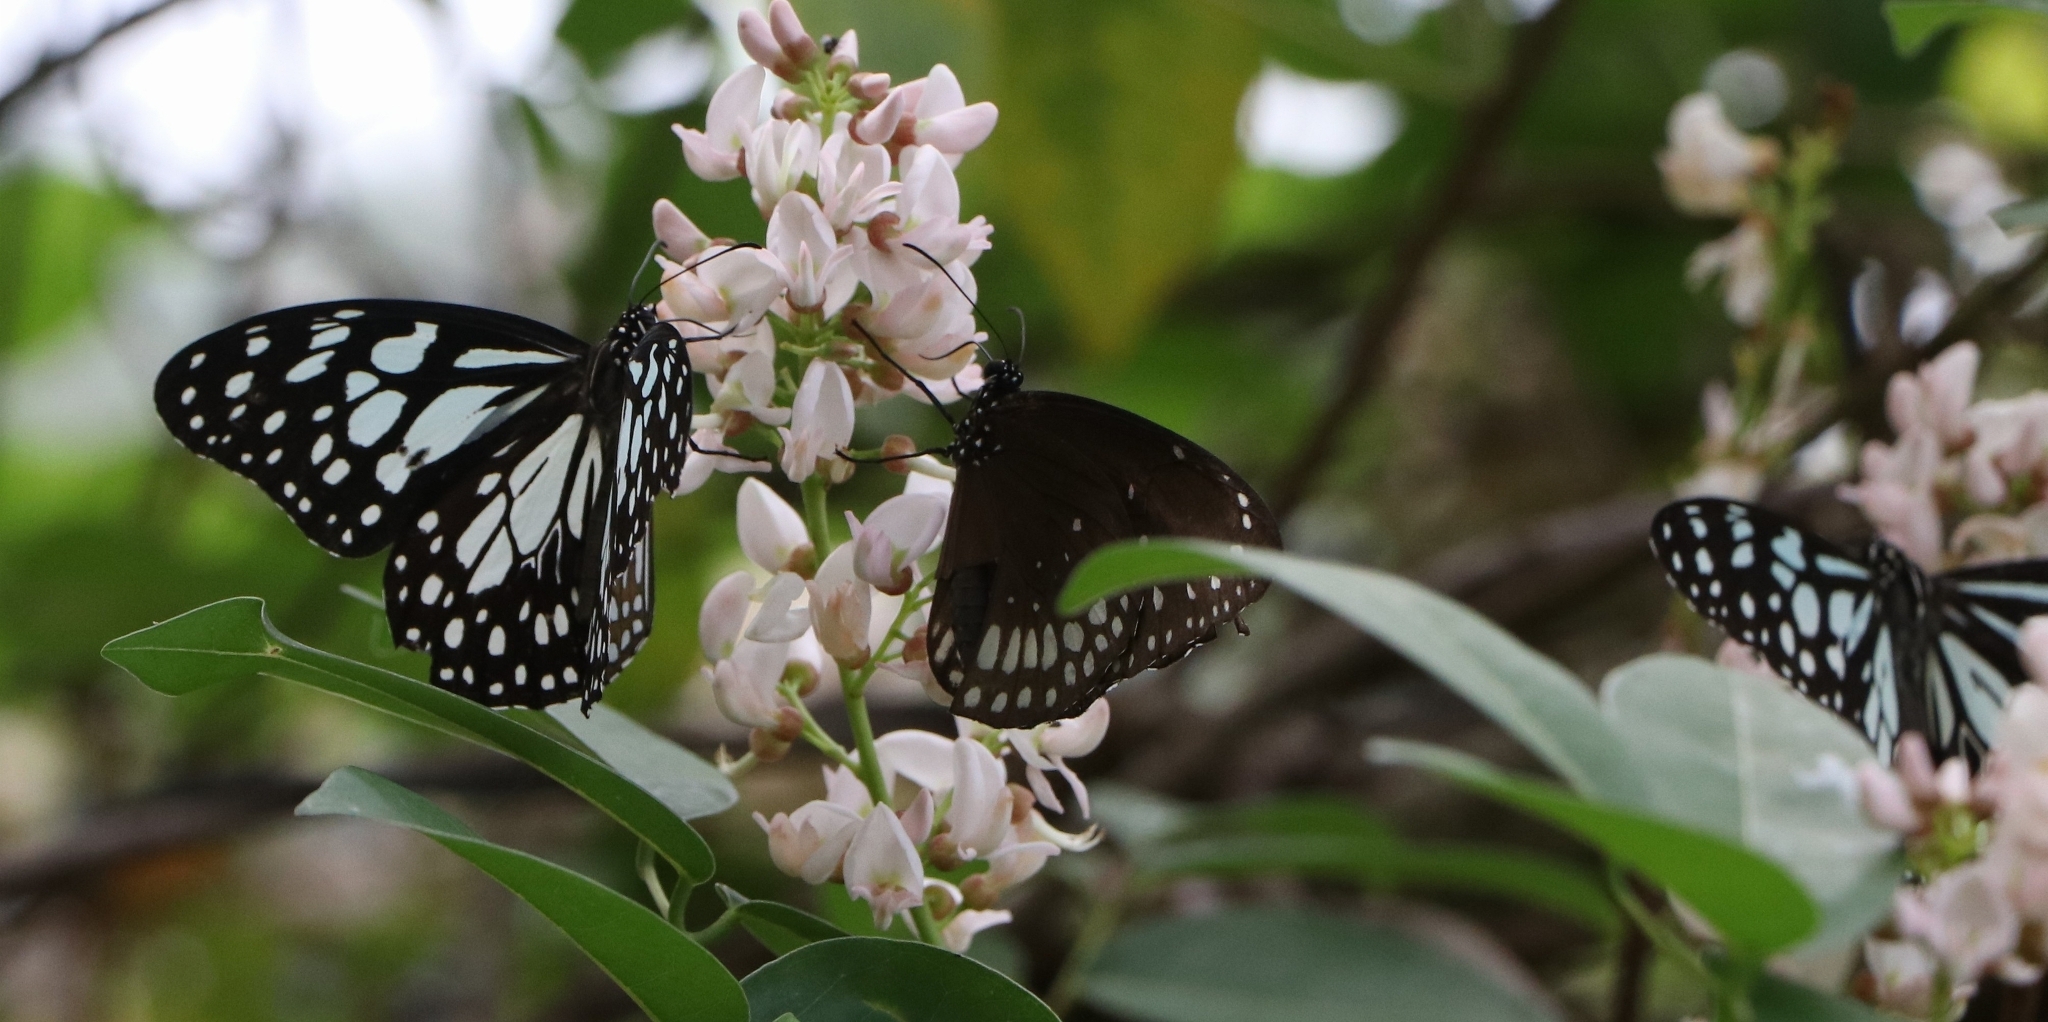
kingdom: Animalia
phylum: Arthropoda
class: Insecta
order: Lepidoptera
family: Nymphalidae
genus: Tirumala
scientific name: Tirumala limniace
